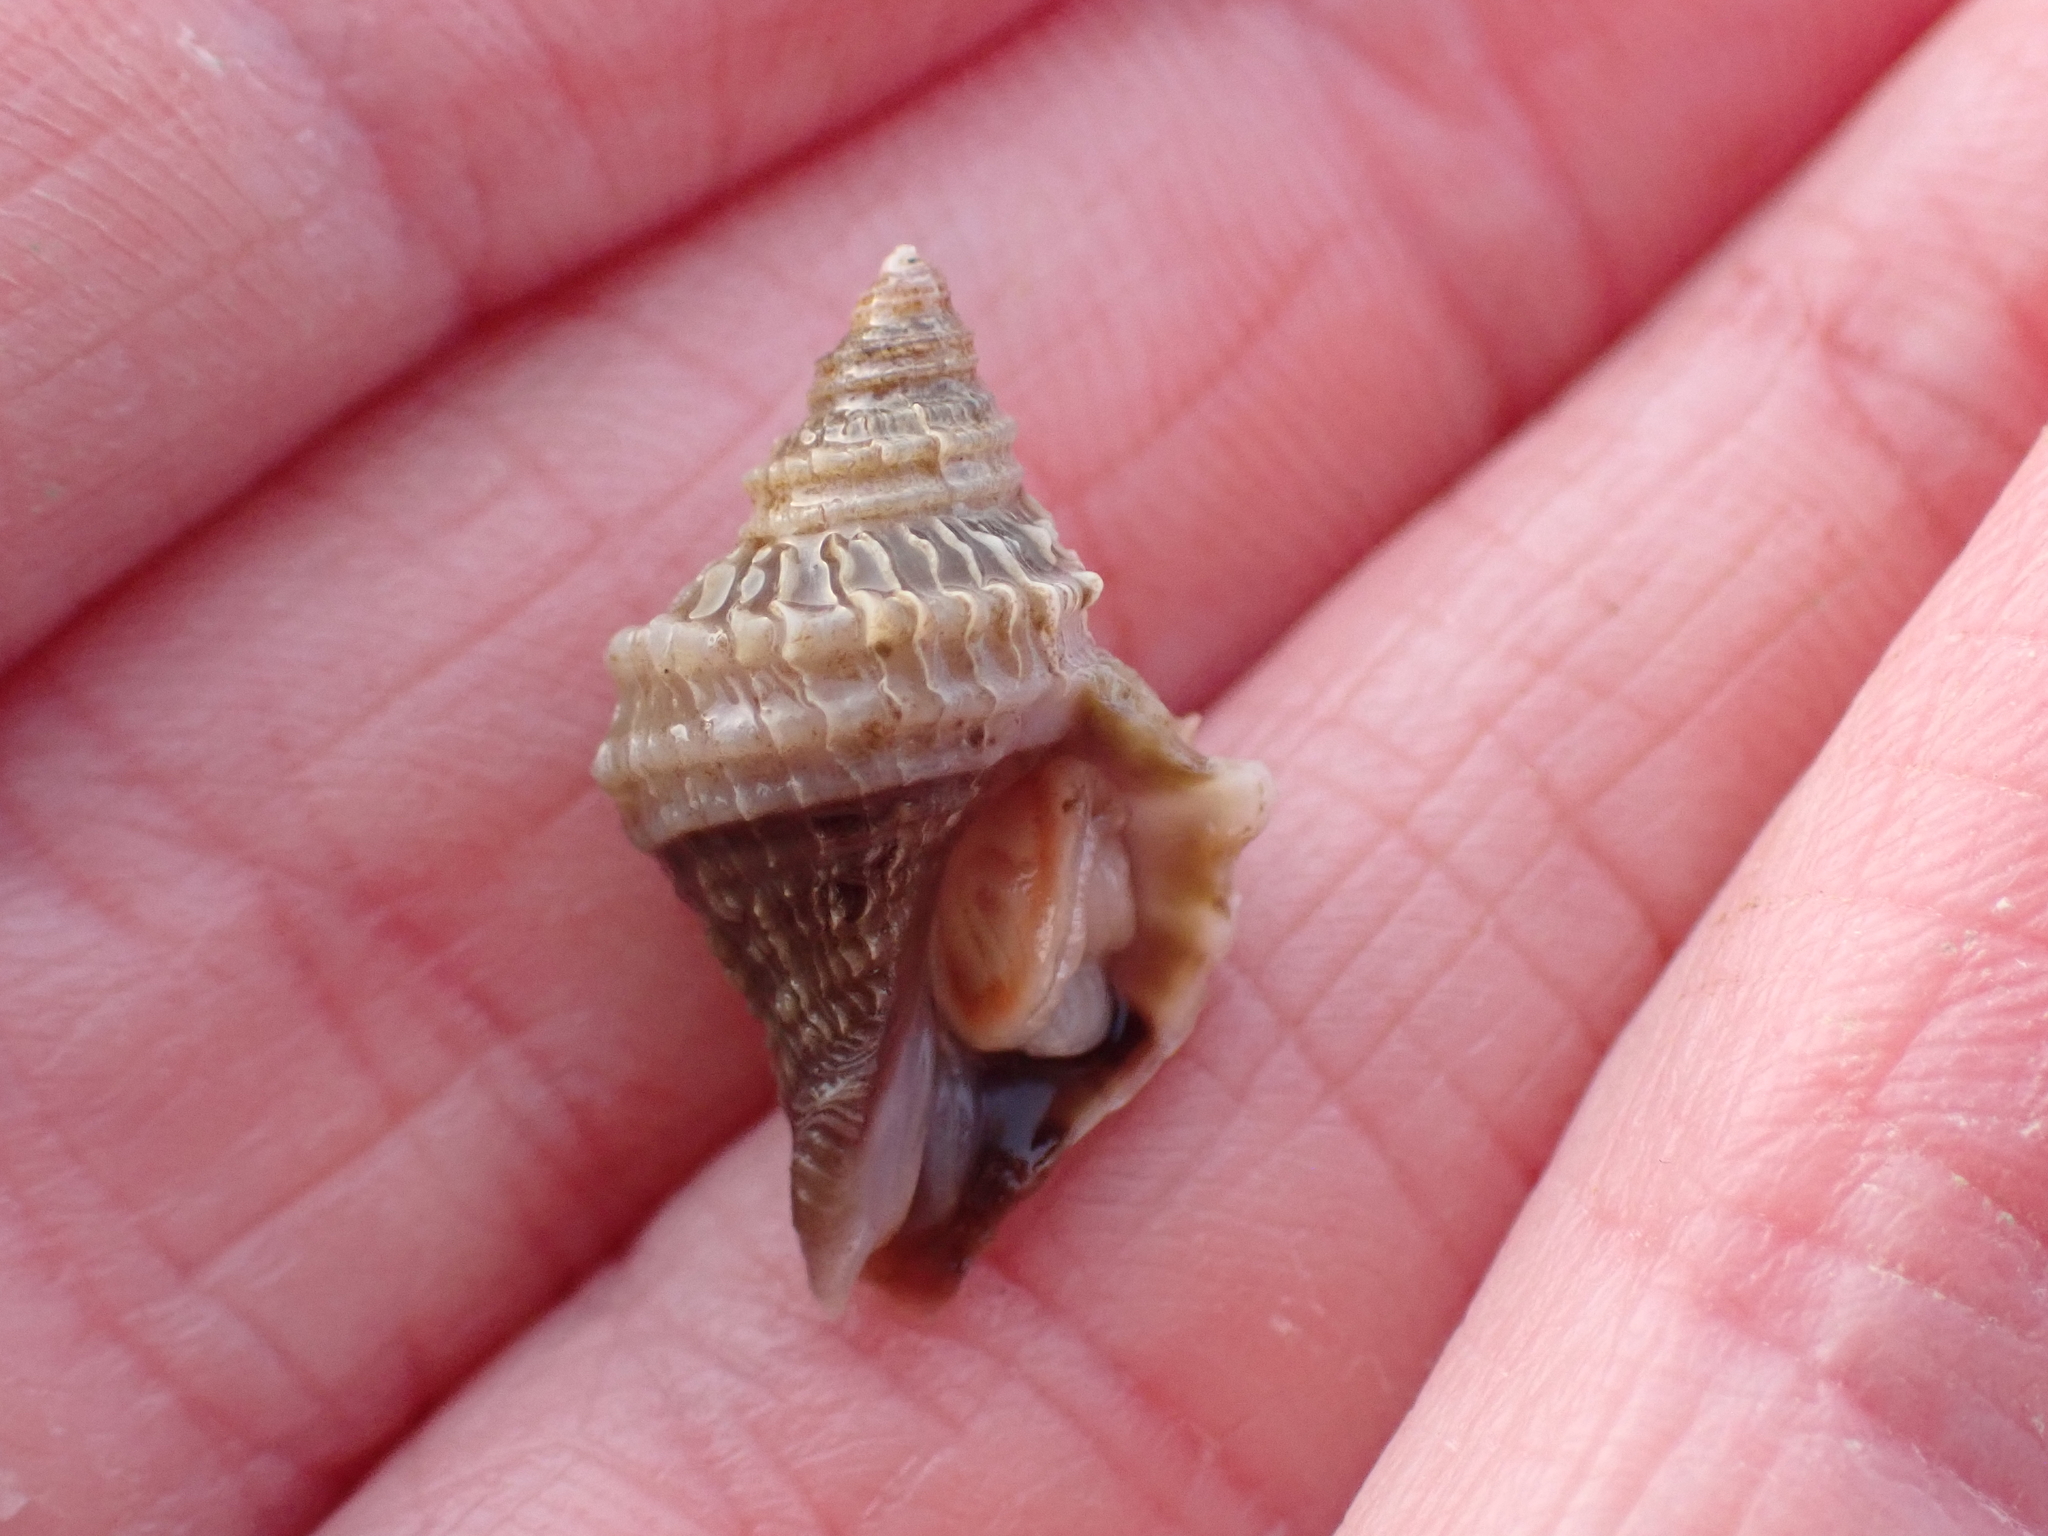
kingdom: Animalia
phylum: Mollusca
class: Gastropoda
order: Neogastropoda
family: Muricidae
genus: Nucella
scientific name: Nucella lamellosa
